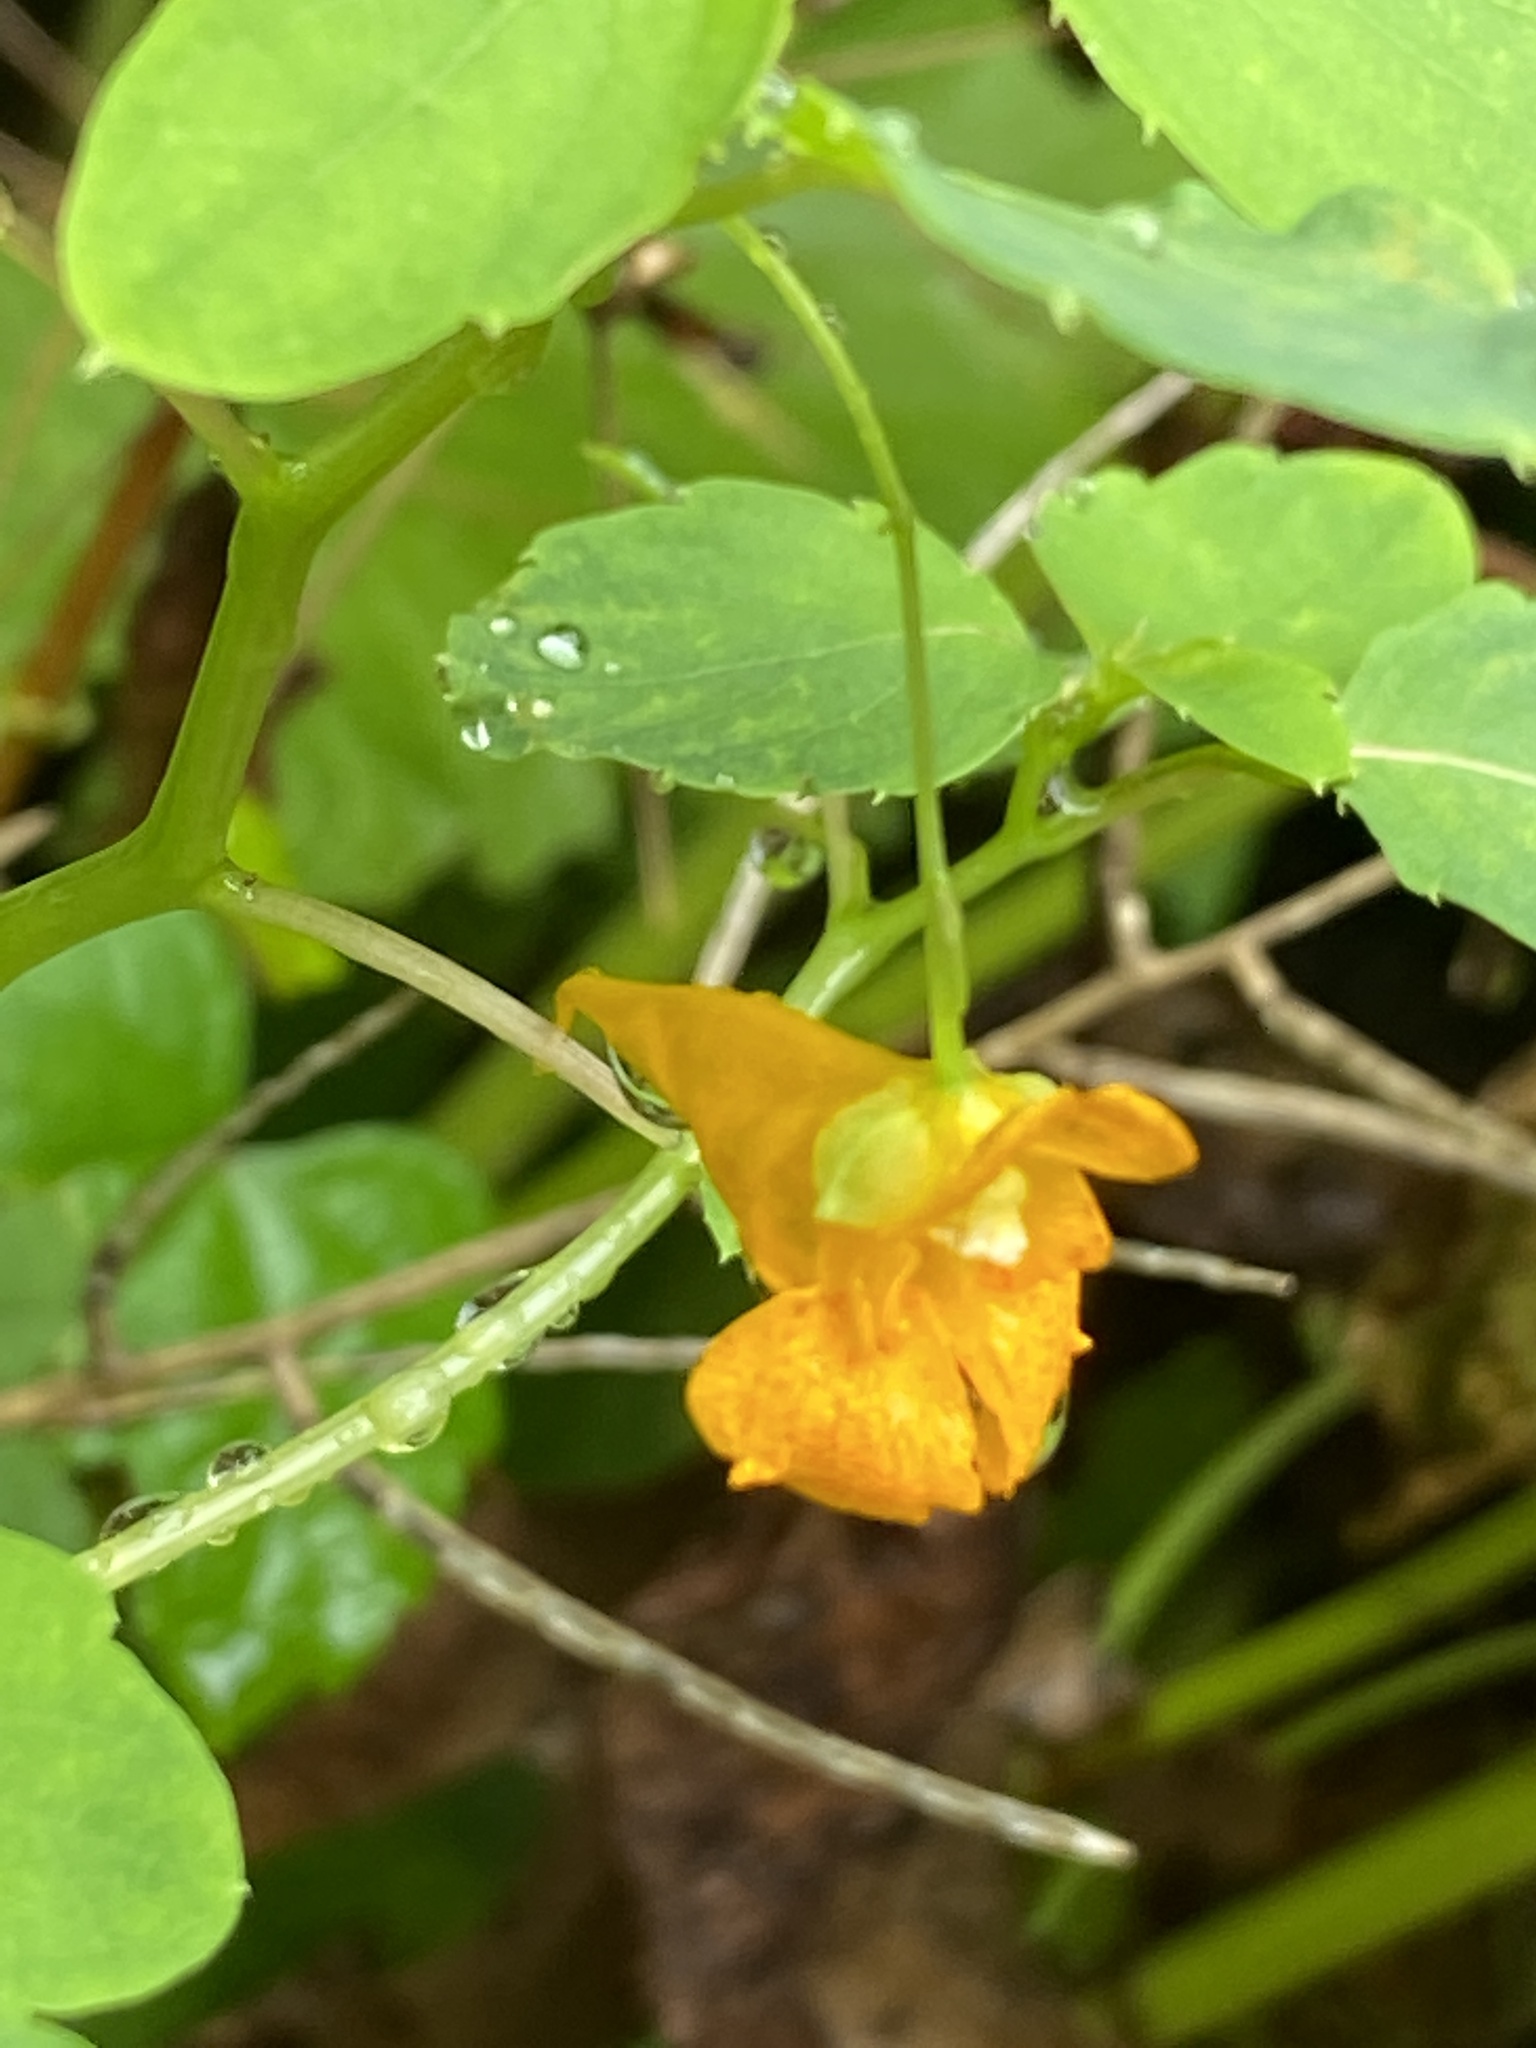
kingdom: Plantae
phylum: Tracheophyta
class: Magnoliopsida
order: Ericales
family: Balsaminaceae
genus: Impatiens
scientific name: Impatiens capensis
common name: Orange balsam
